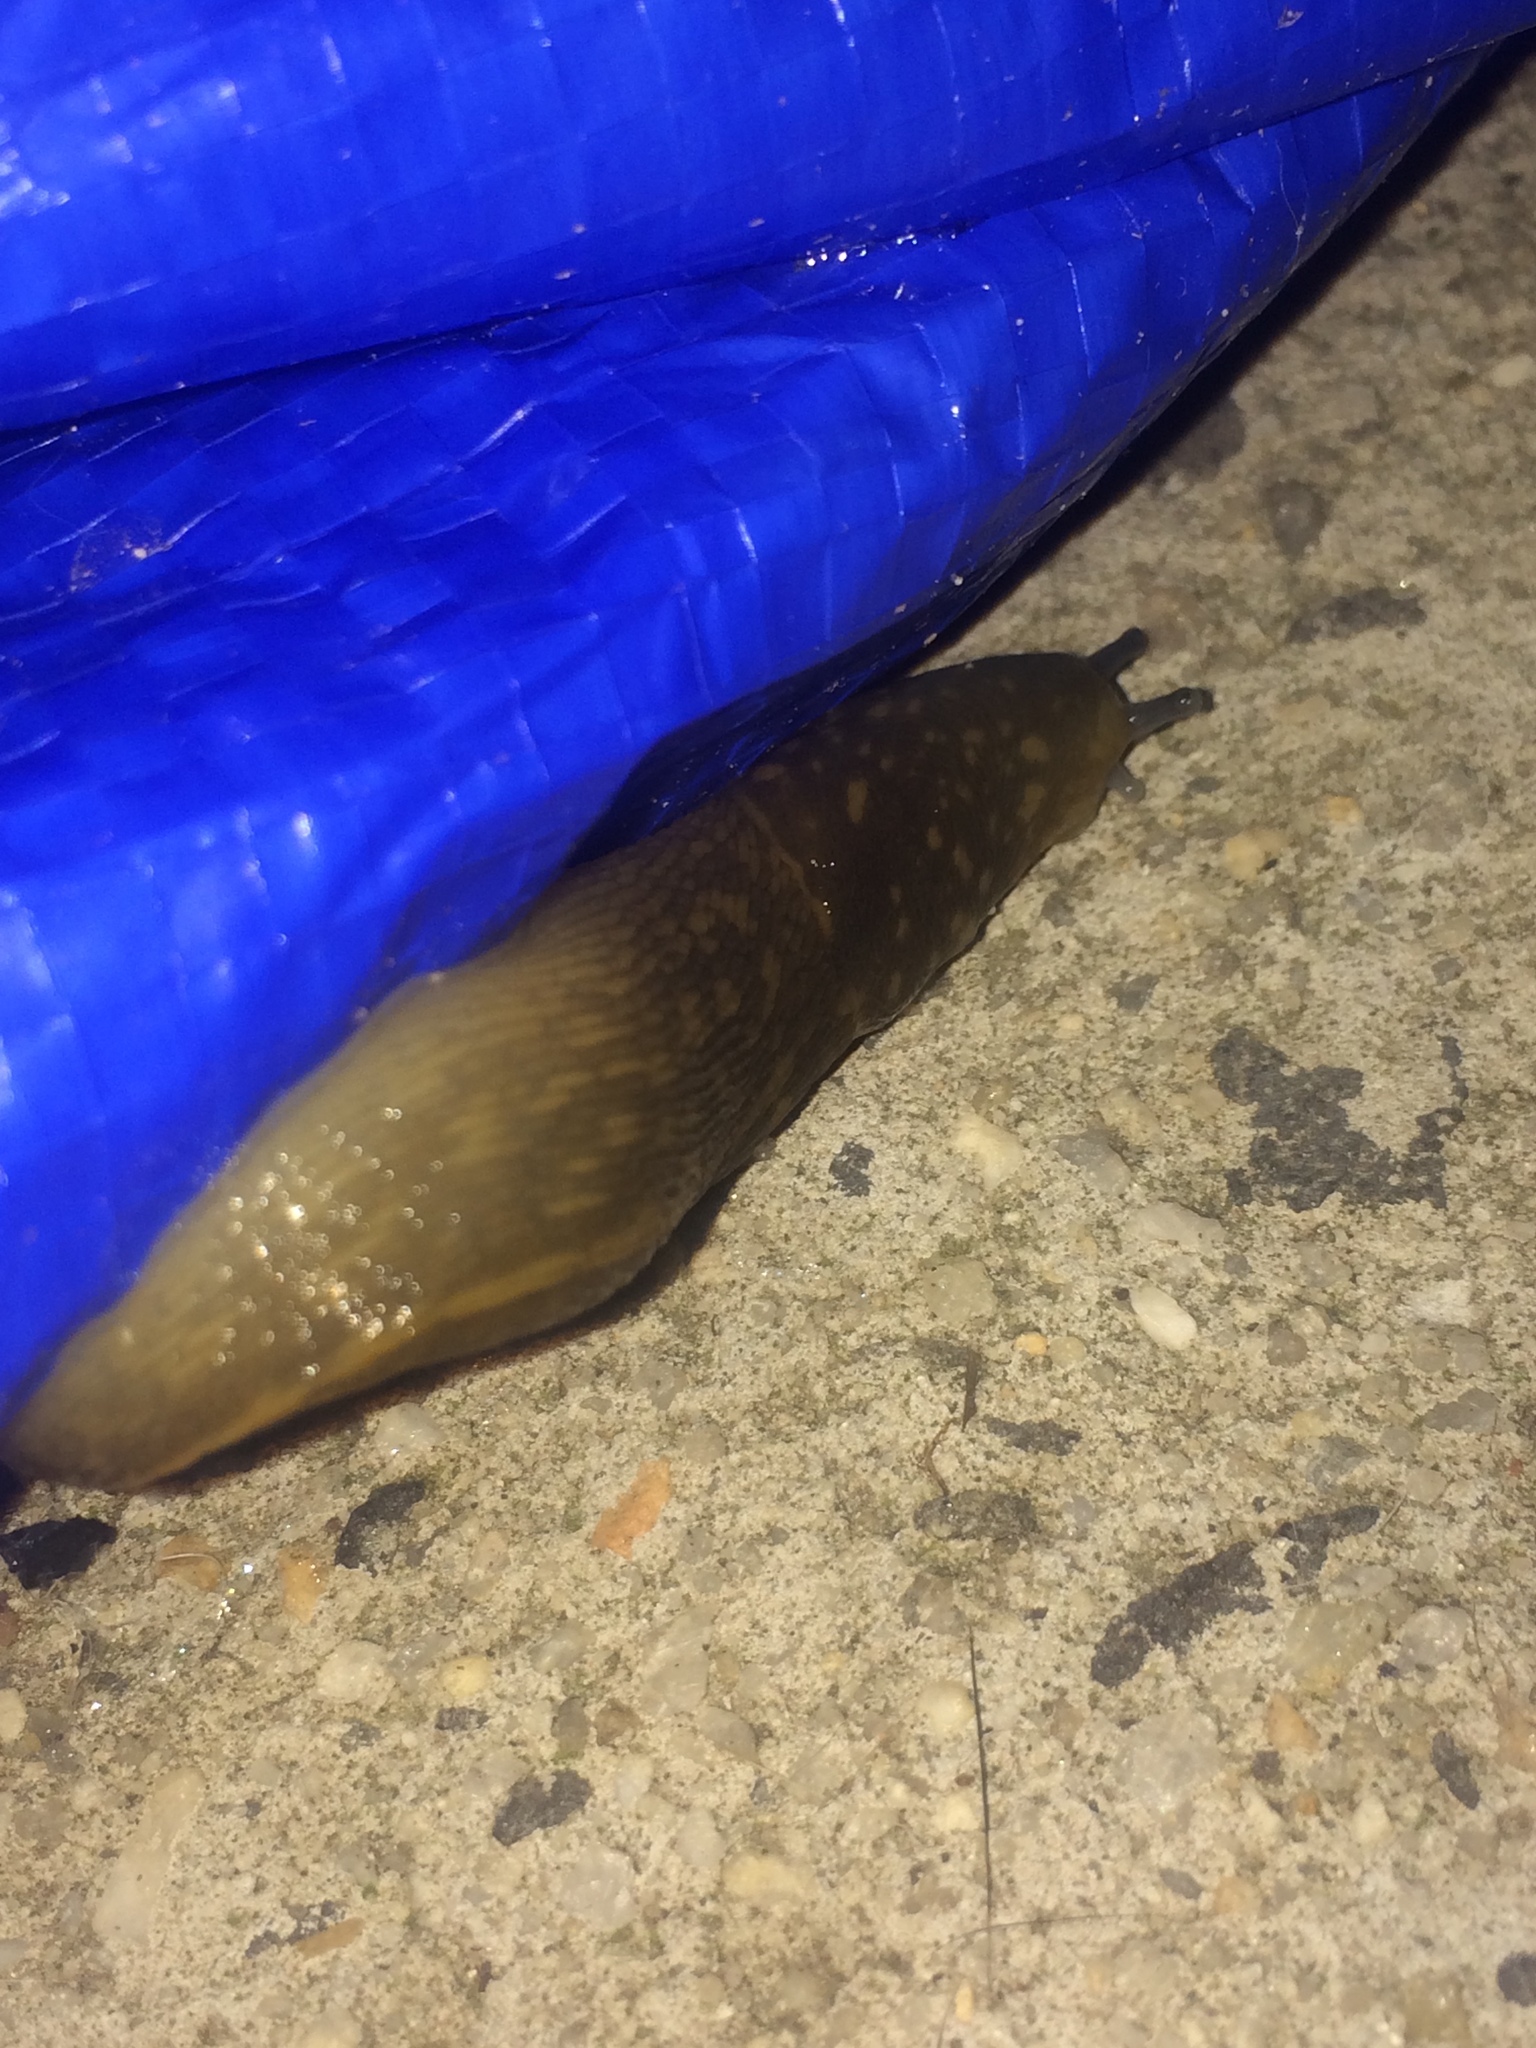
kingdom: Animalia
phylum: Mollusca
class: Gastropoda
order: Stylommatophora
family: Limacidae
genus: Limacus
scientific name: Limacus flavus
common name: Yellow gardenslug
